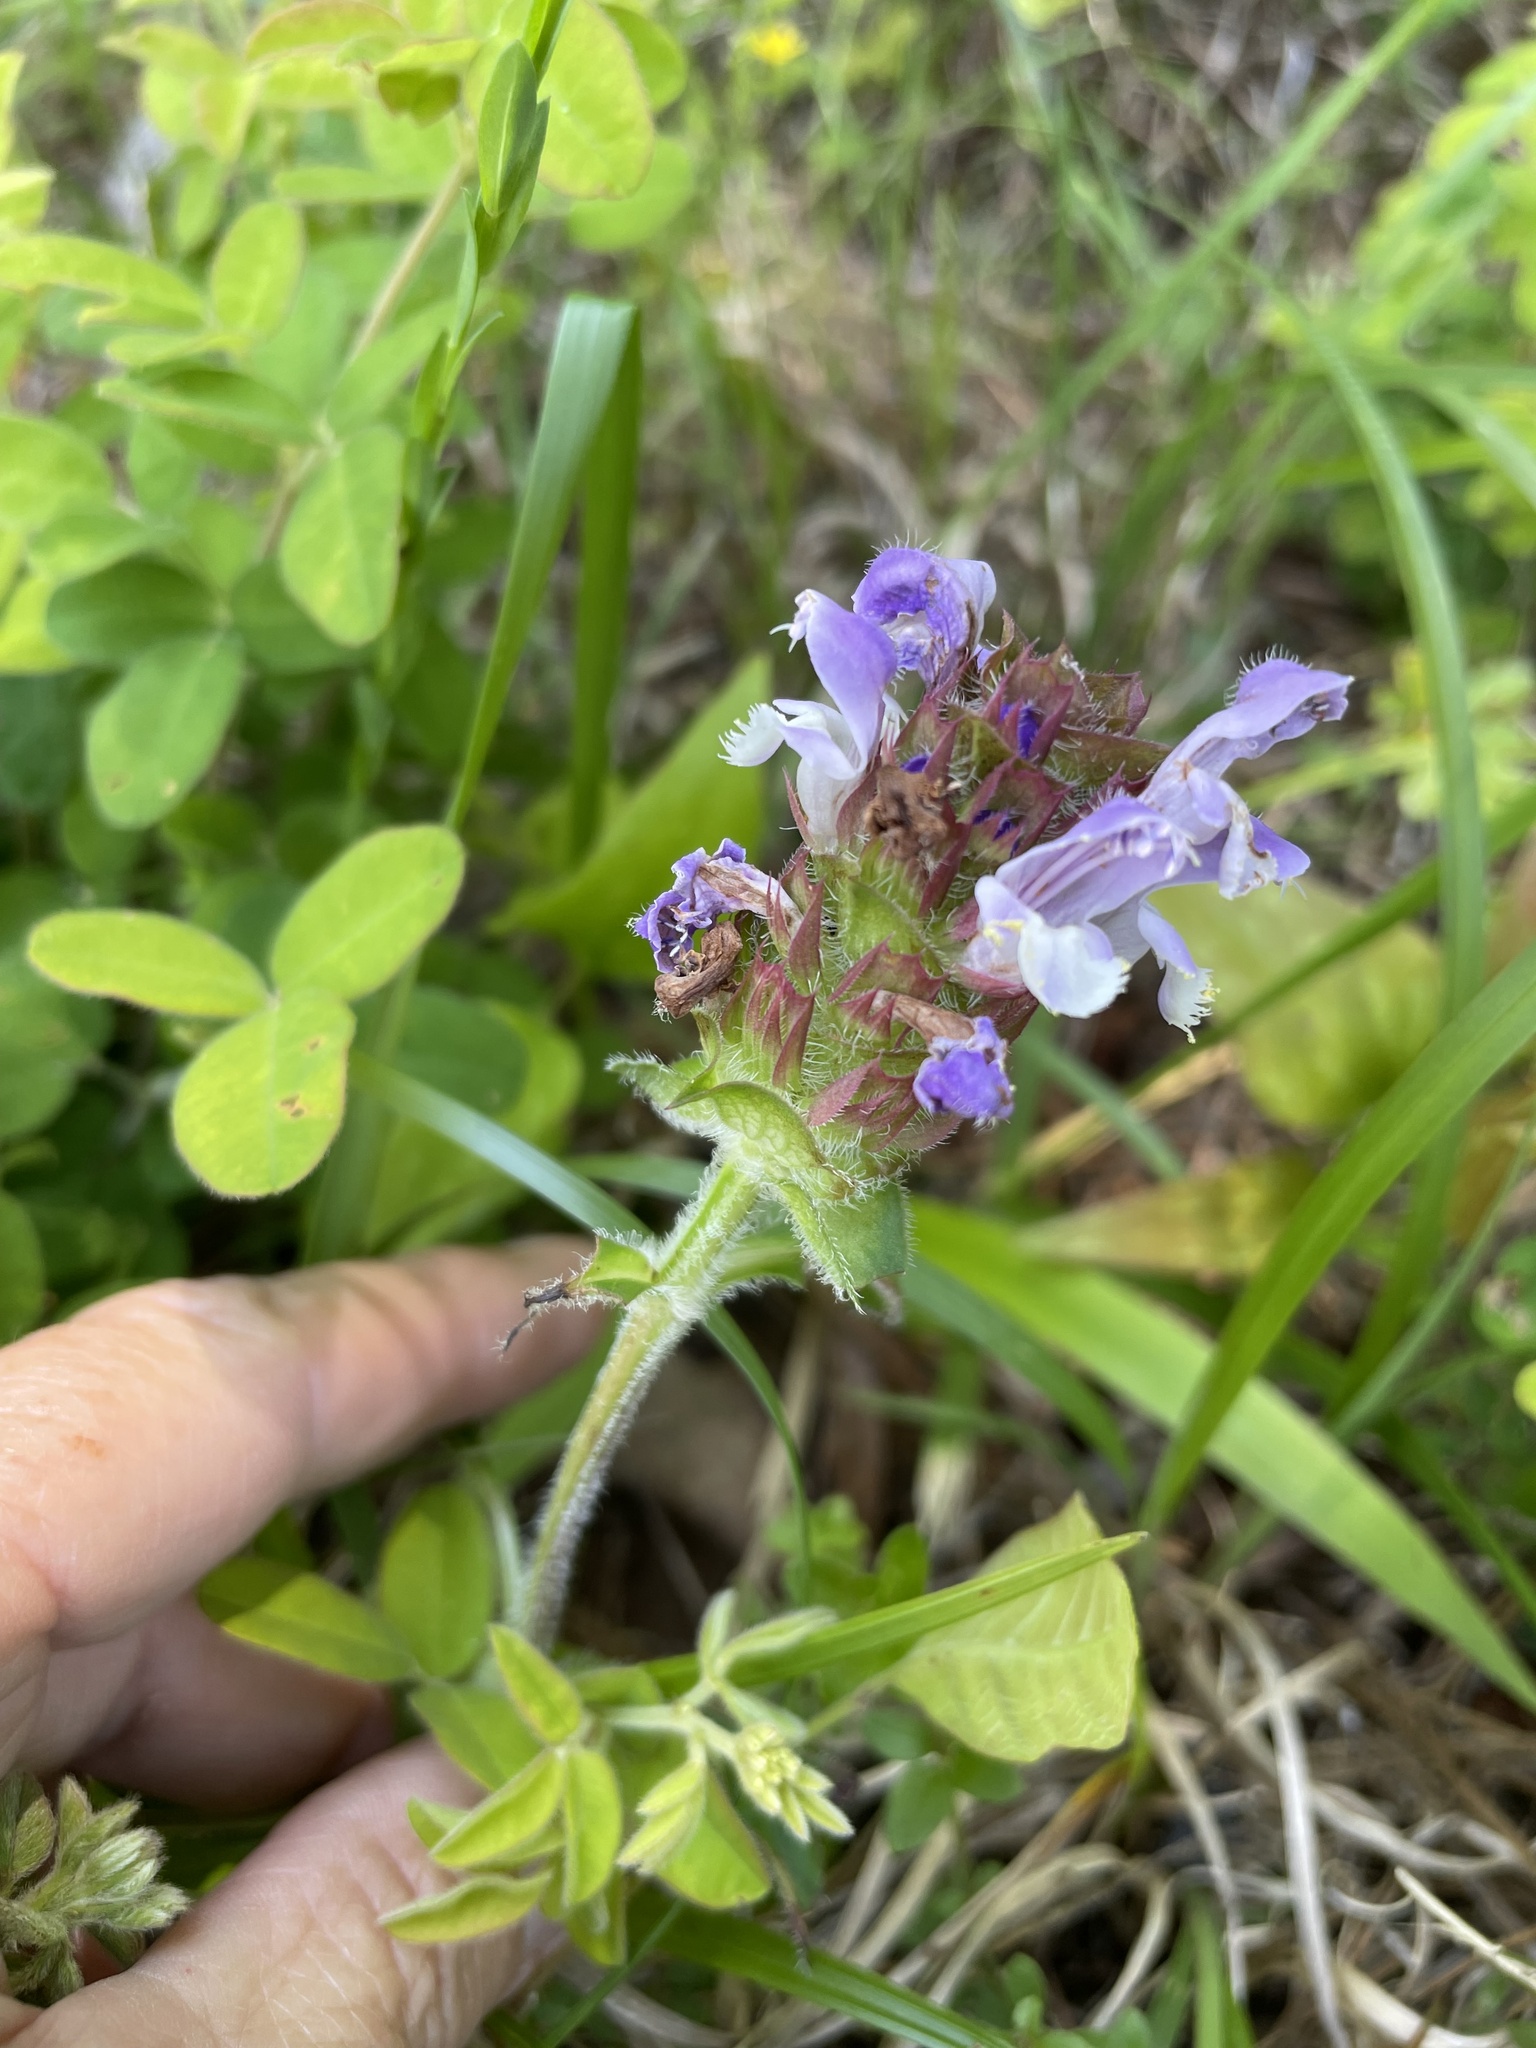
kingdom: Plantae
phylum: Tracheophyta
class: Magnoliopsida
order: Lamiales
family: Lamiaceae
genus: Prunella
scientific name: Prunella vulgaris
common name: Heal-all
